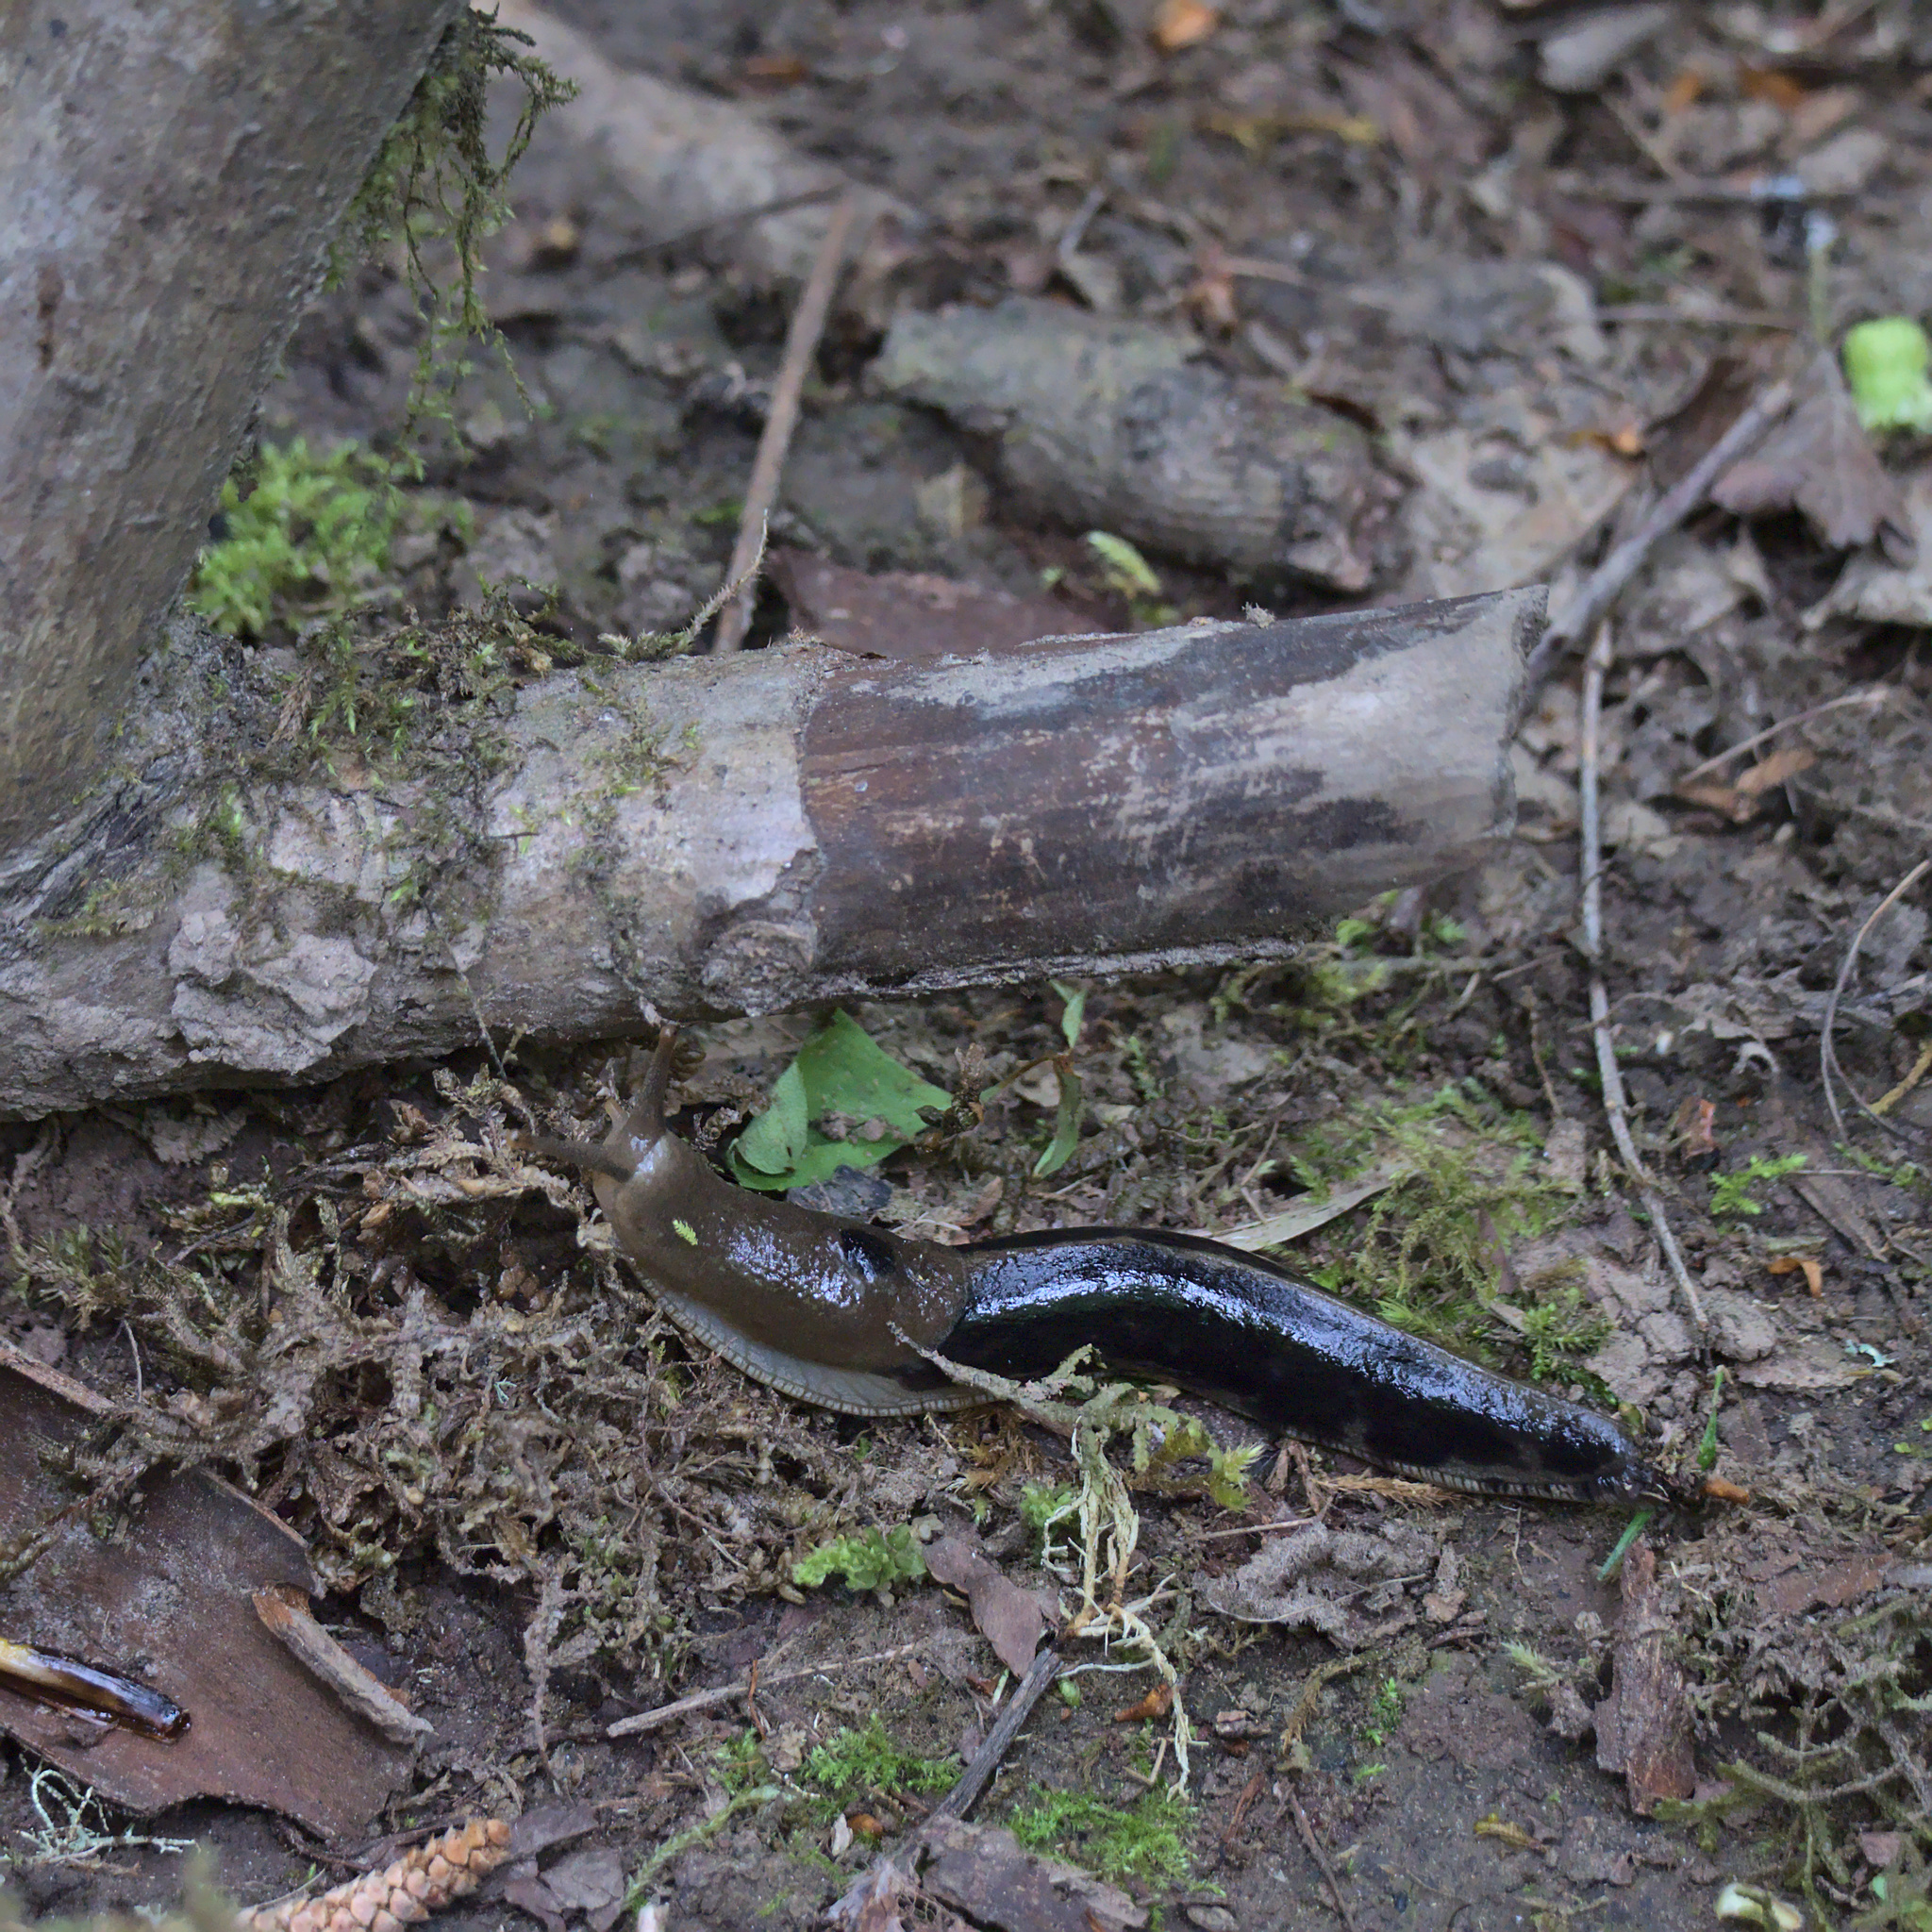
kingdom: Animalia
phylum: Mollusca
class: Gastropoda
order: Stylommatophora
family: Ariolimacidae
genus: Ariolimax
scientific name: Ariolimax columbianus
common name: Pacific banana slug
